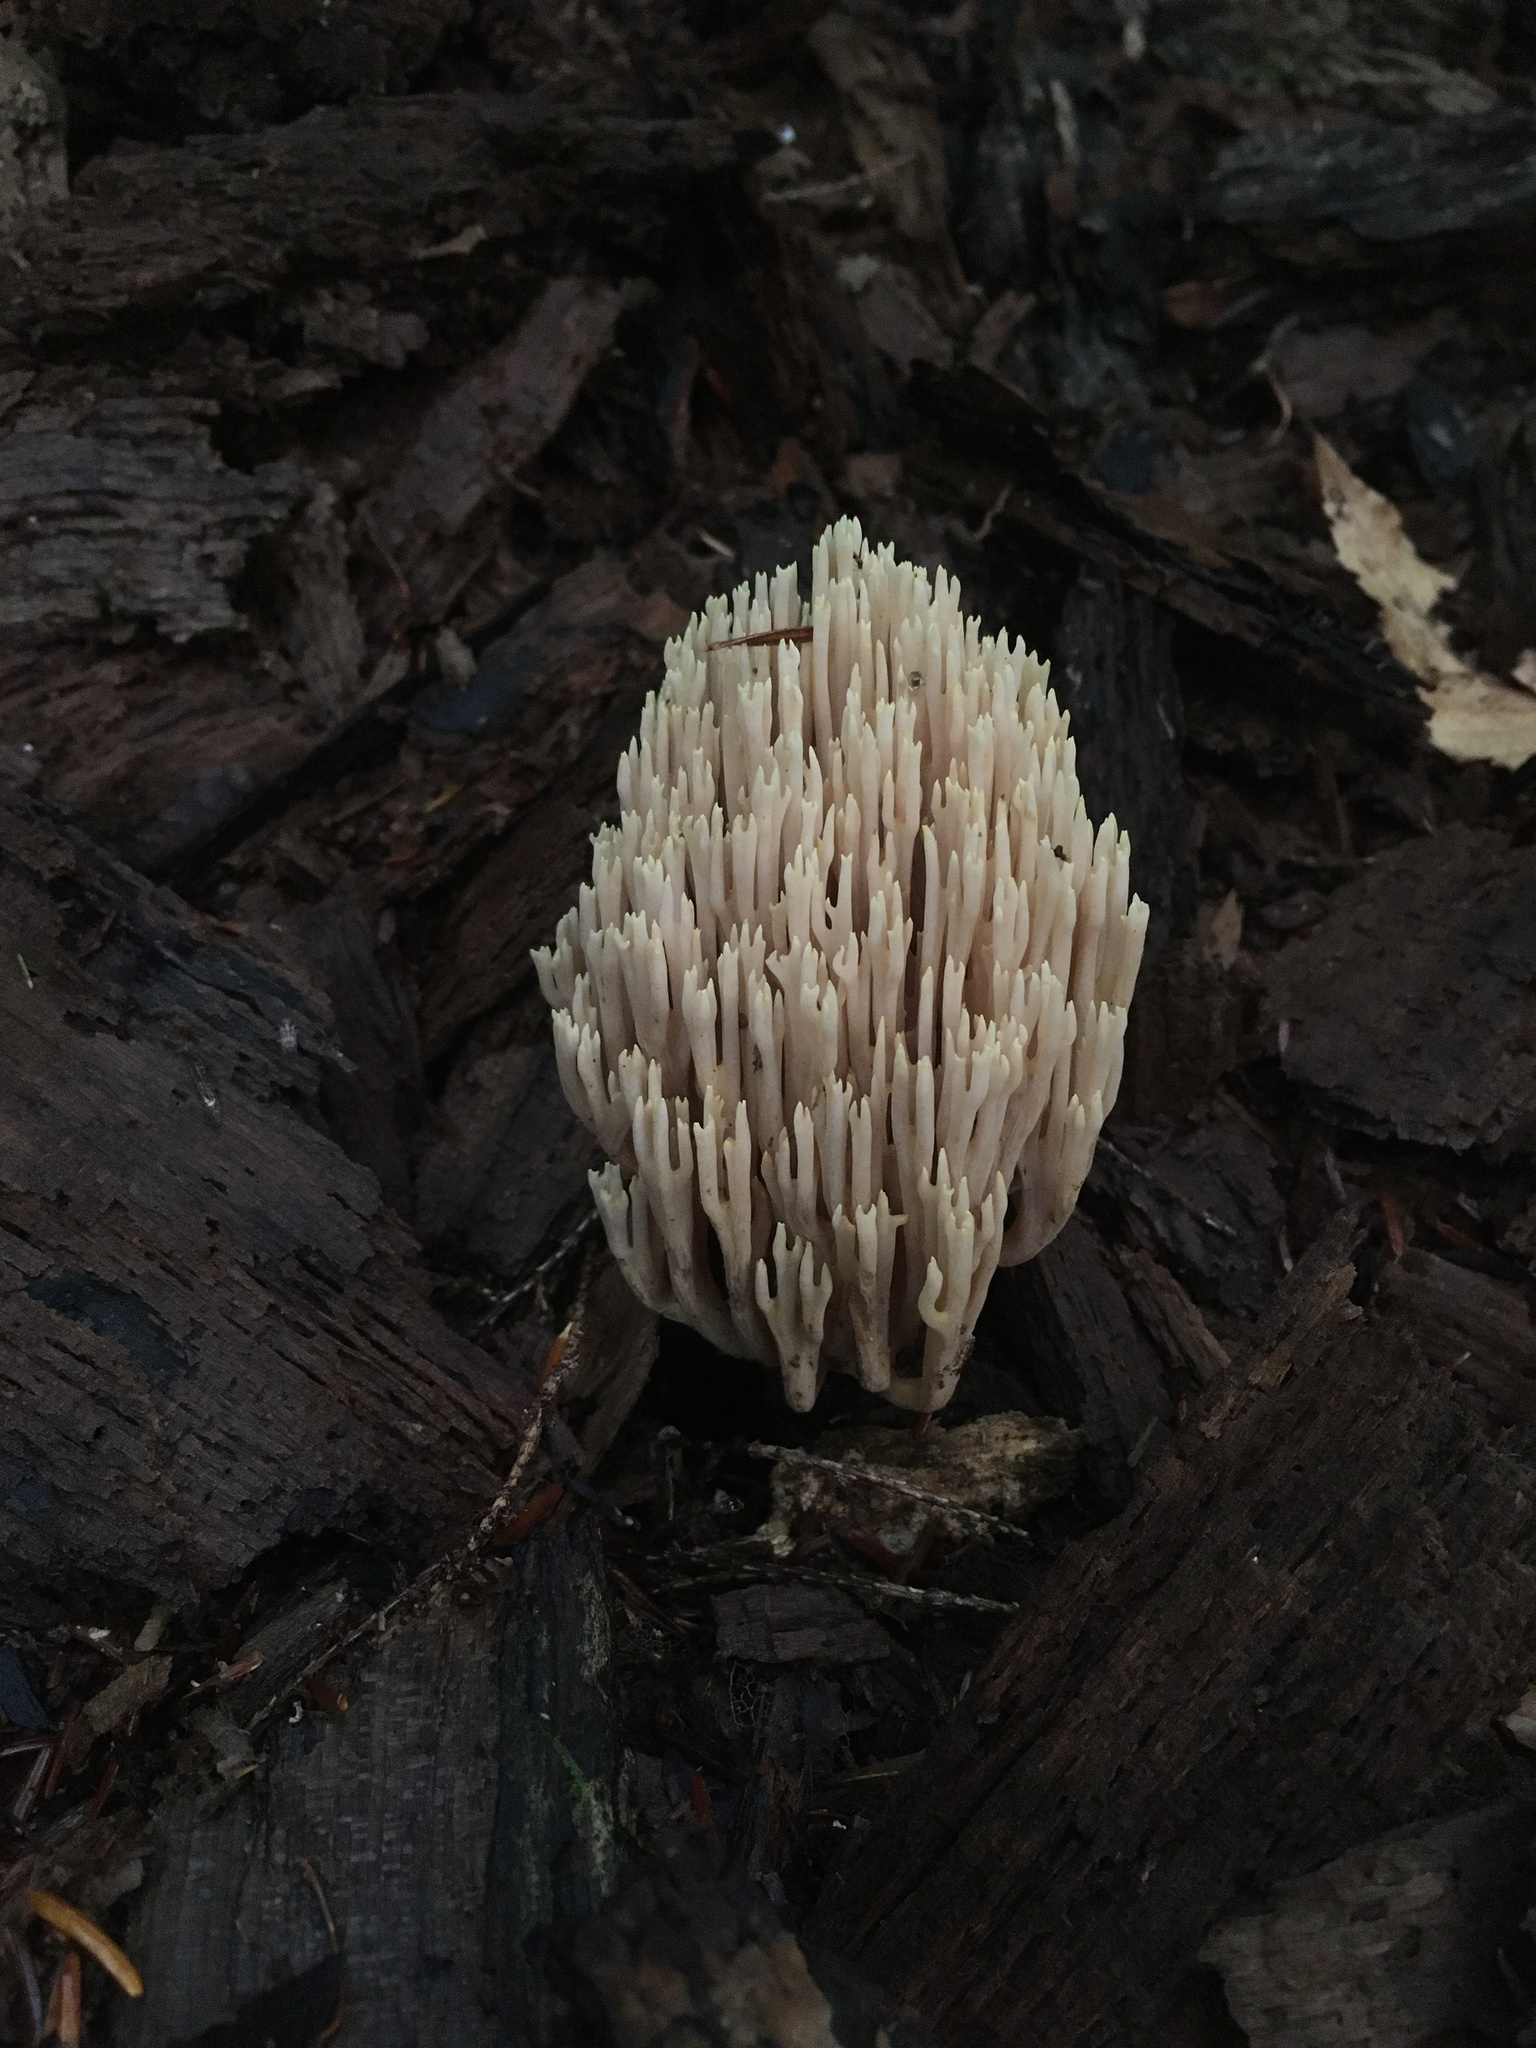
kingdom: Fungi
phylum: Basidiomycota
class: Agaricomycetes
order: Gomphales
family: Gomphaceae
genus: Ramaria
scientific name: Ramaria stricta
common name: Upright coral
